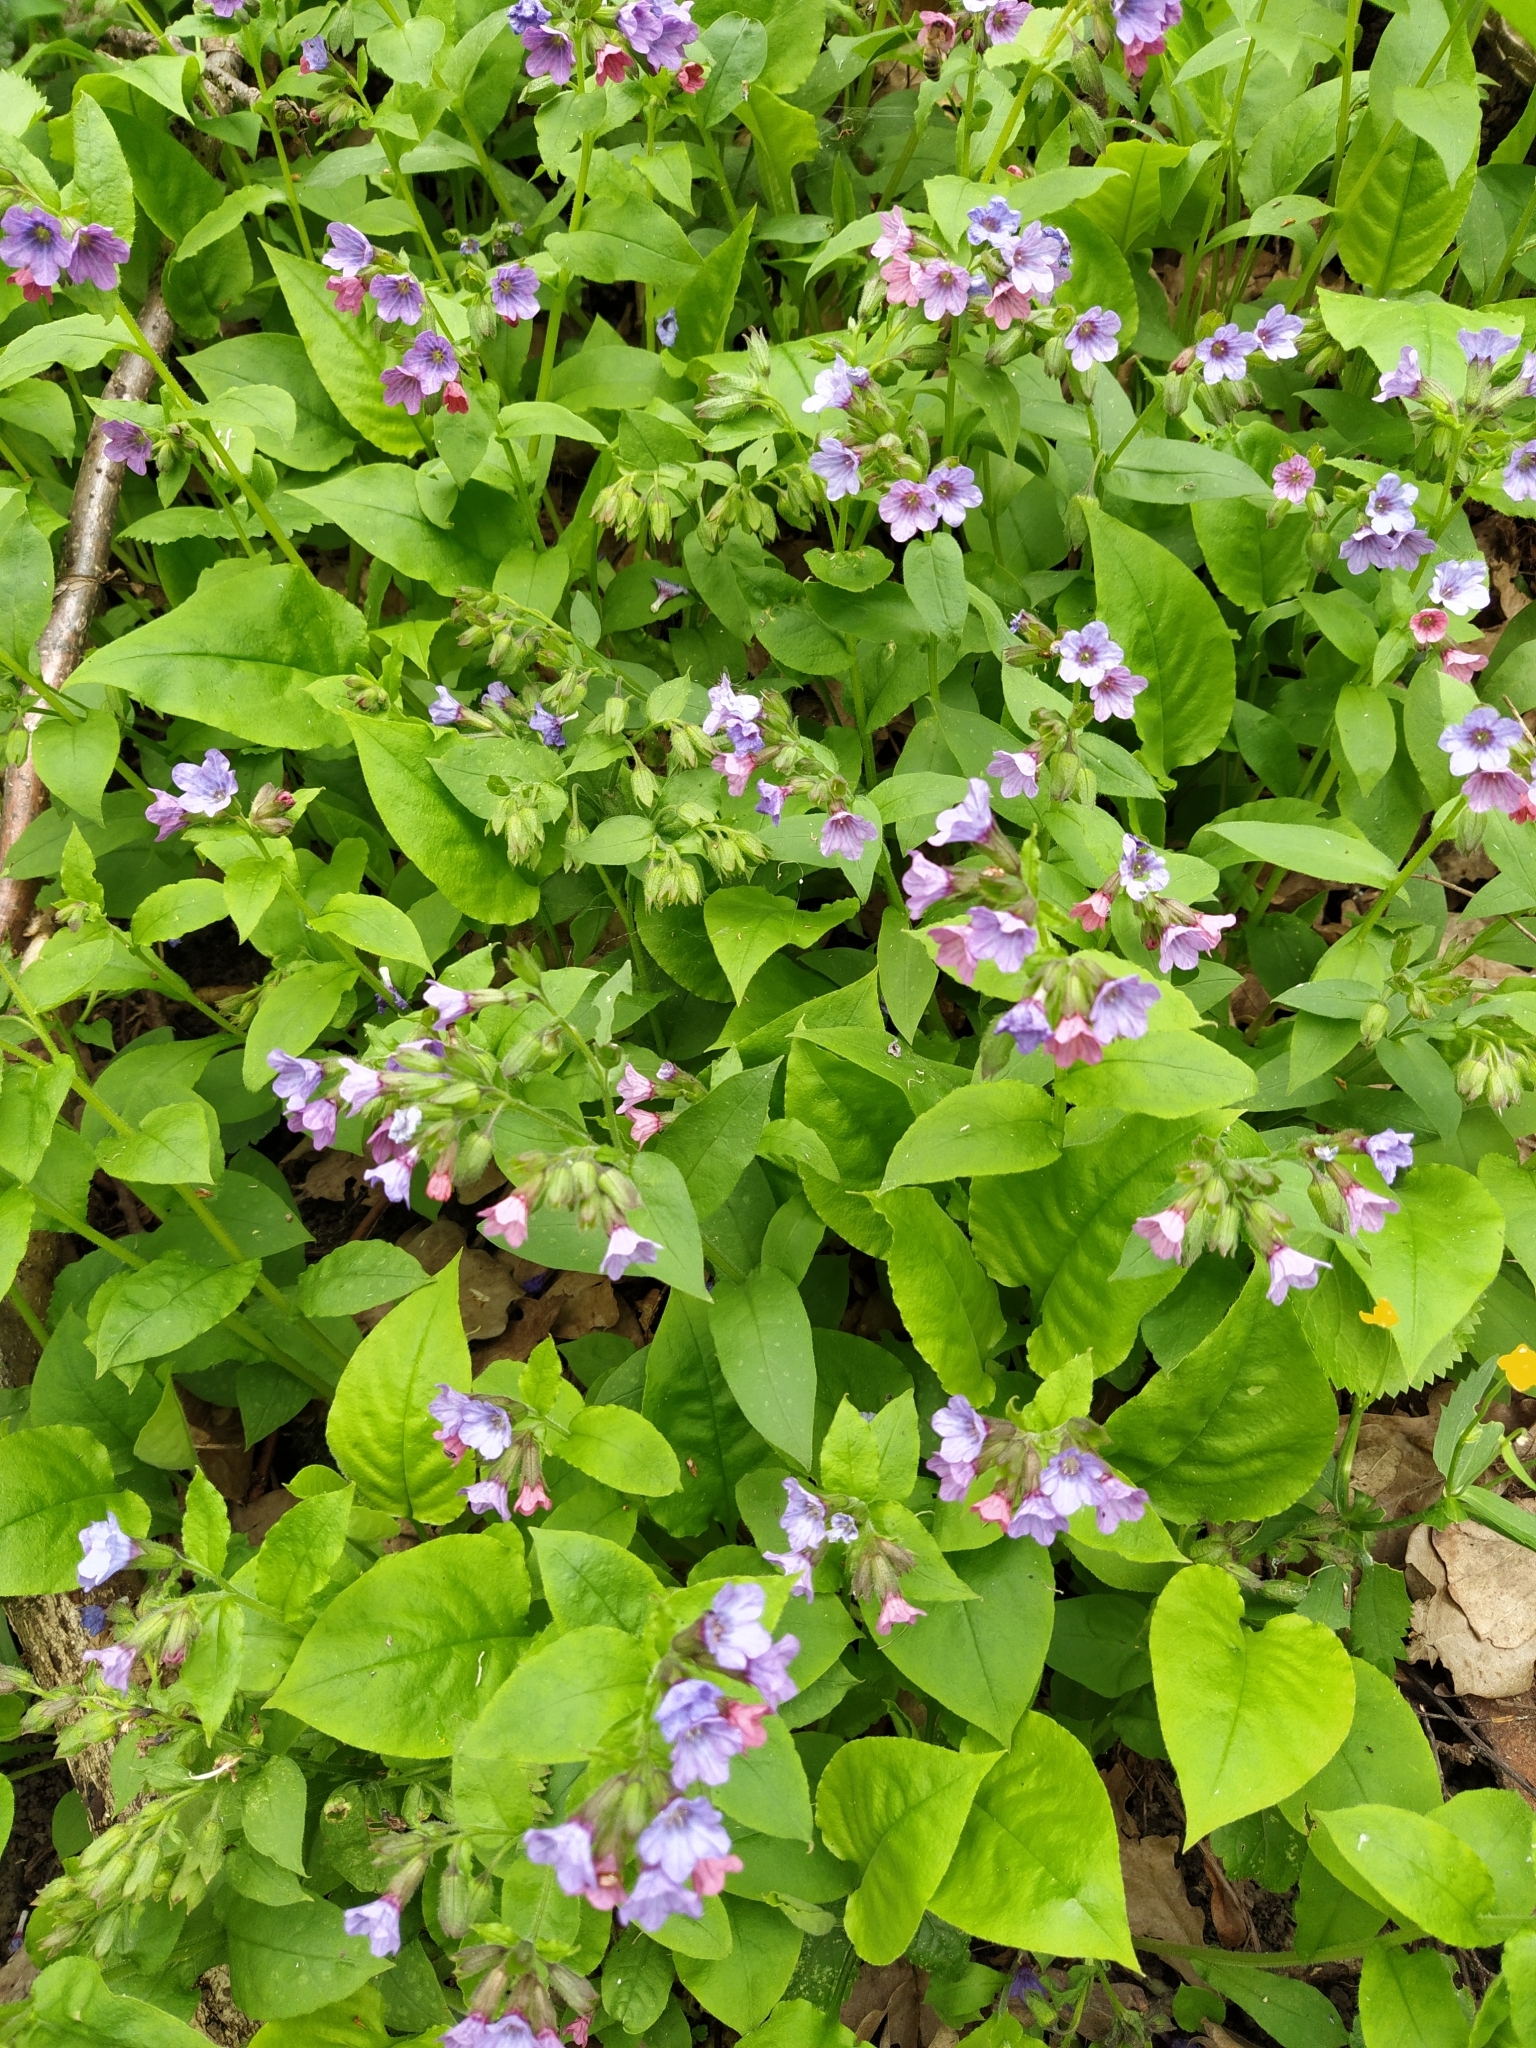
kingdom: Plantae
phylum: Tracheophyta
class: Magnoliopsida
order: Boraginales
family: Boraginaceae
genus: Pulmonaria
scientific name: Pulmonaria obscura
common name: Suffolk lungwort
